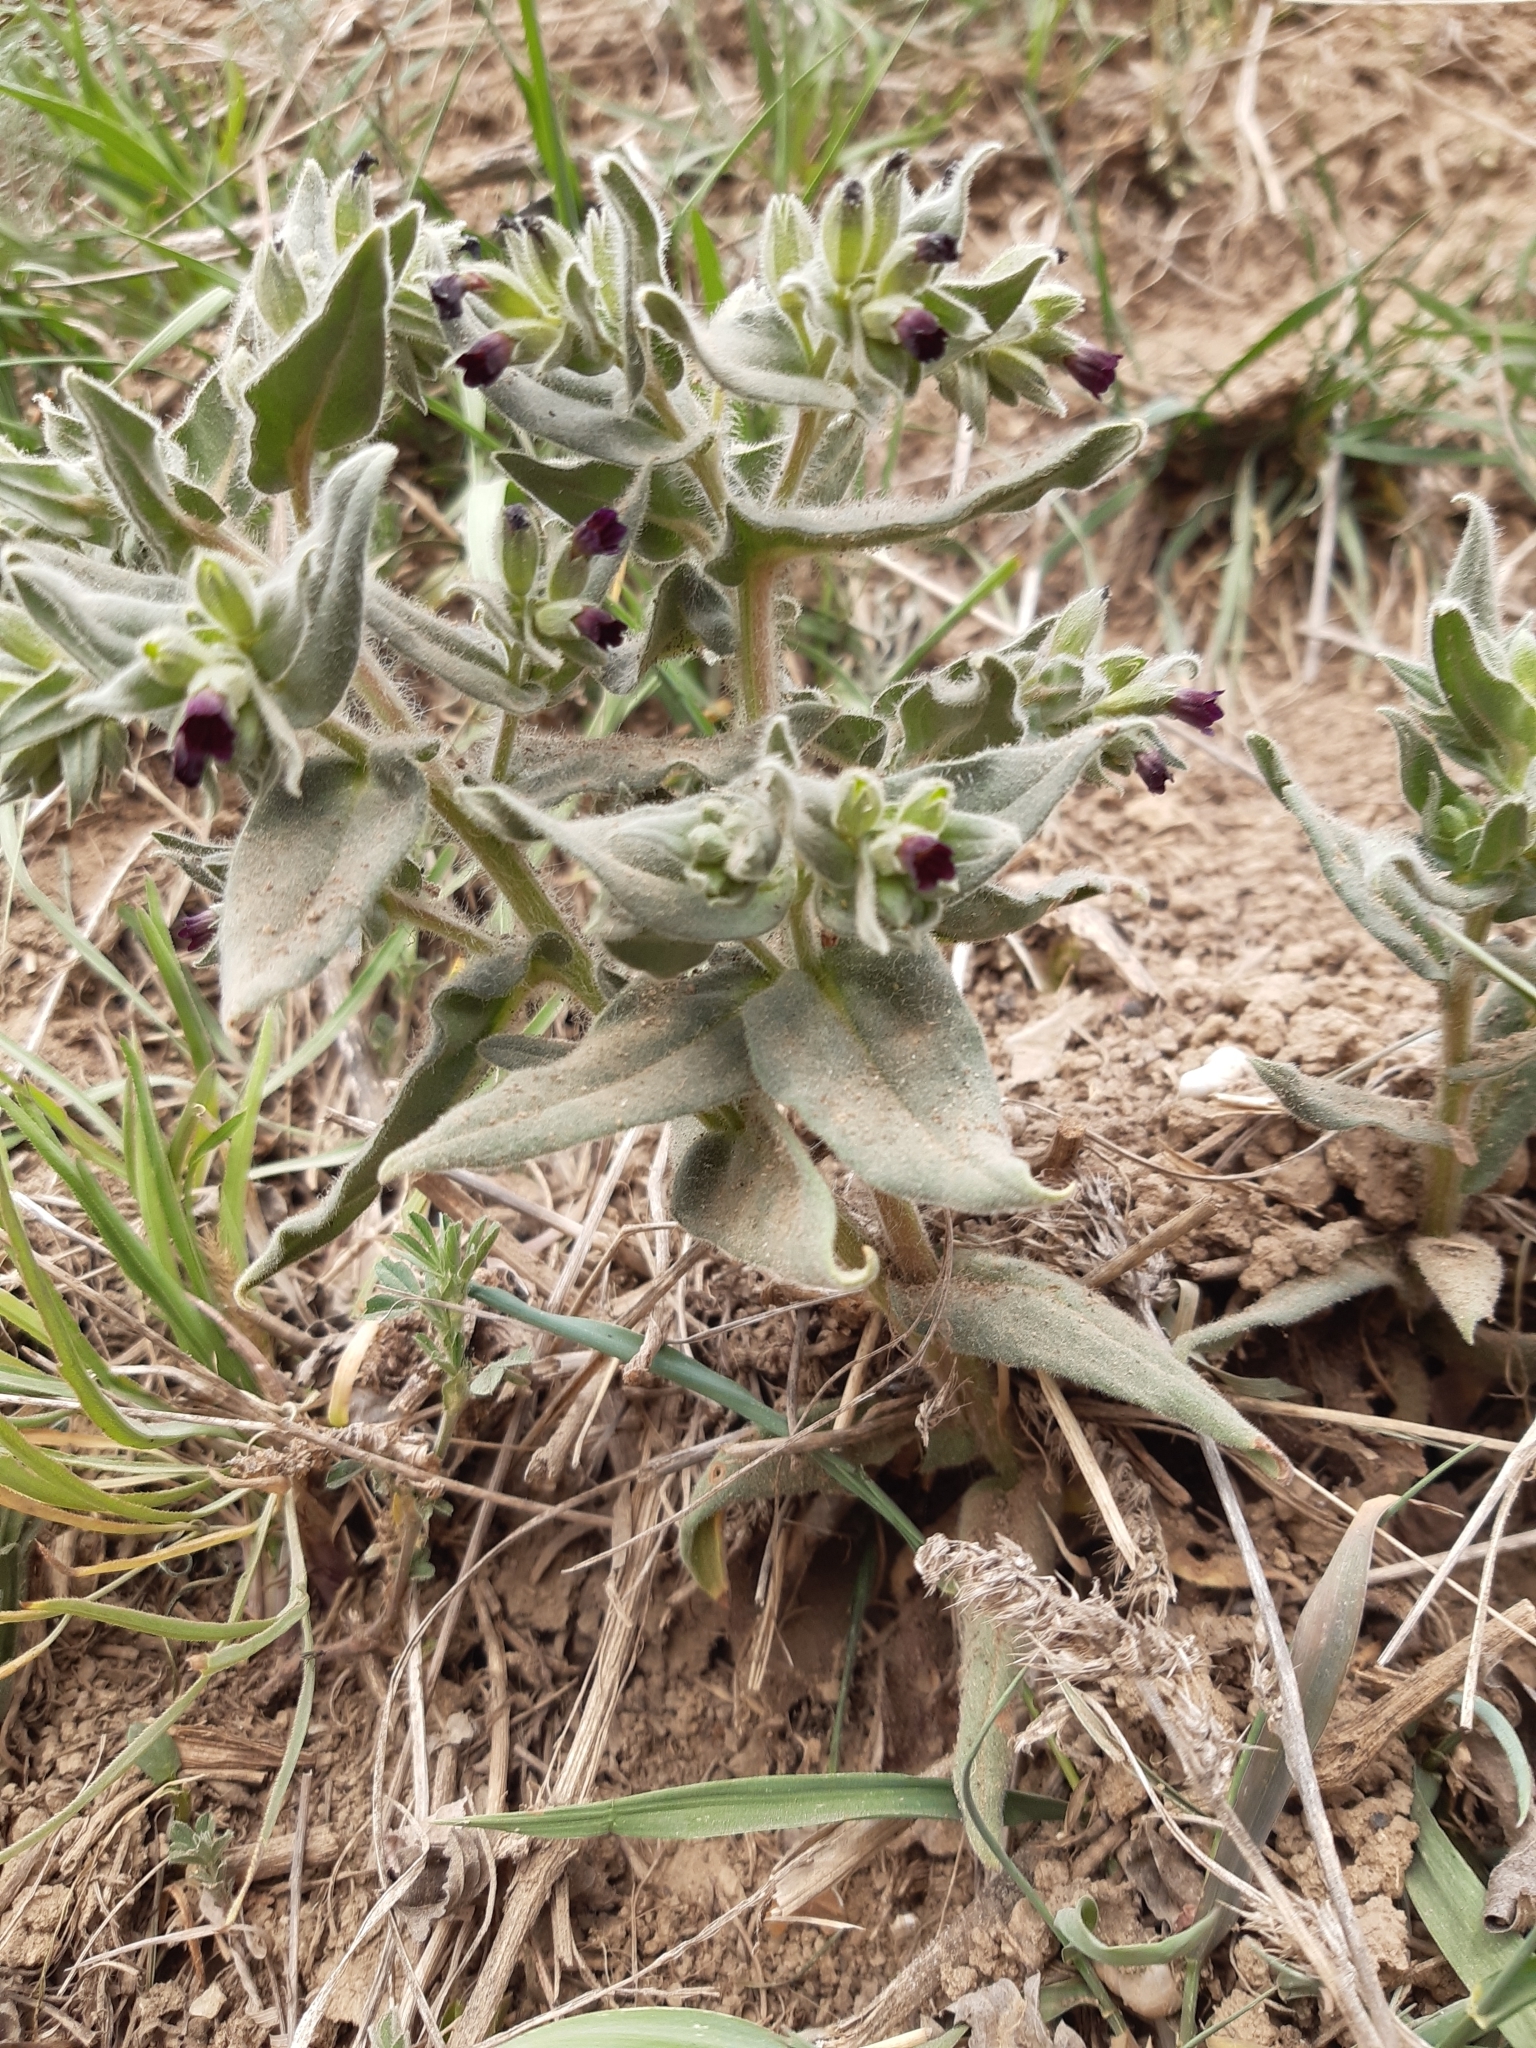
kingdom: Plantae
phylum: Tracheophyta
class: Magnoliopsida
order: Boraginales
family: Boraginaceae
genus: Nonea
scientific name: Nonea pulla
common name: Brown nonea
